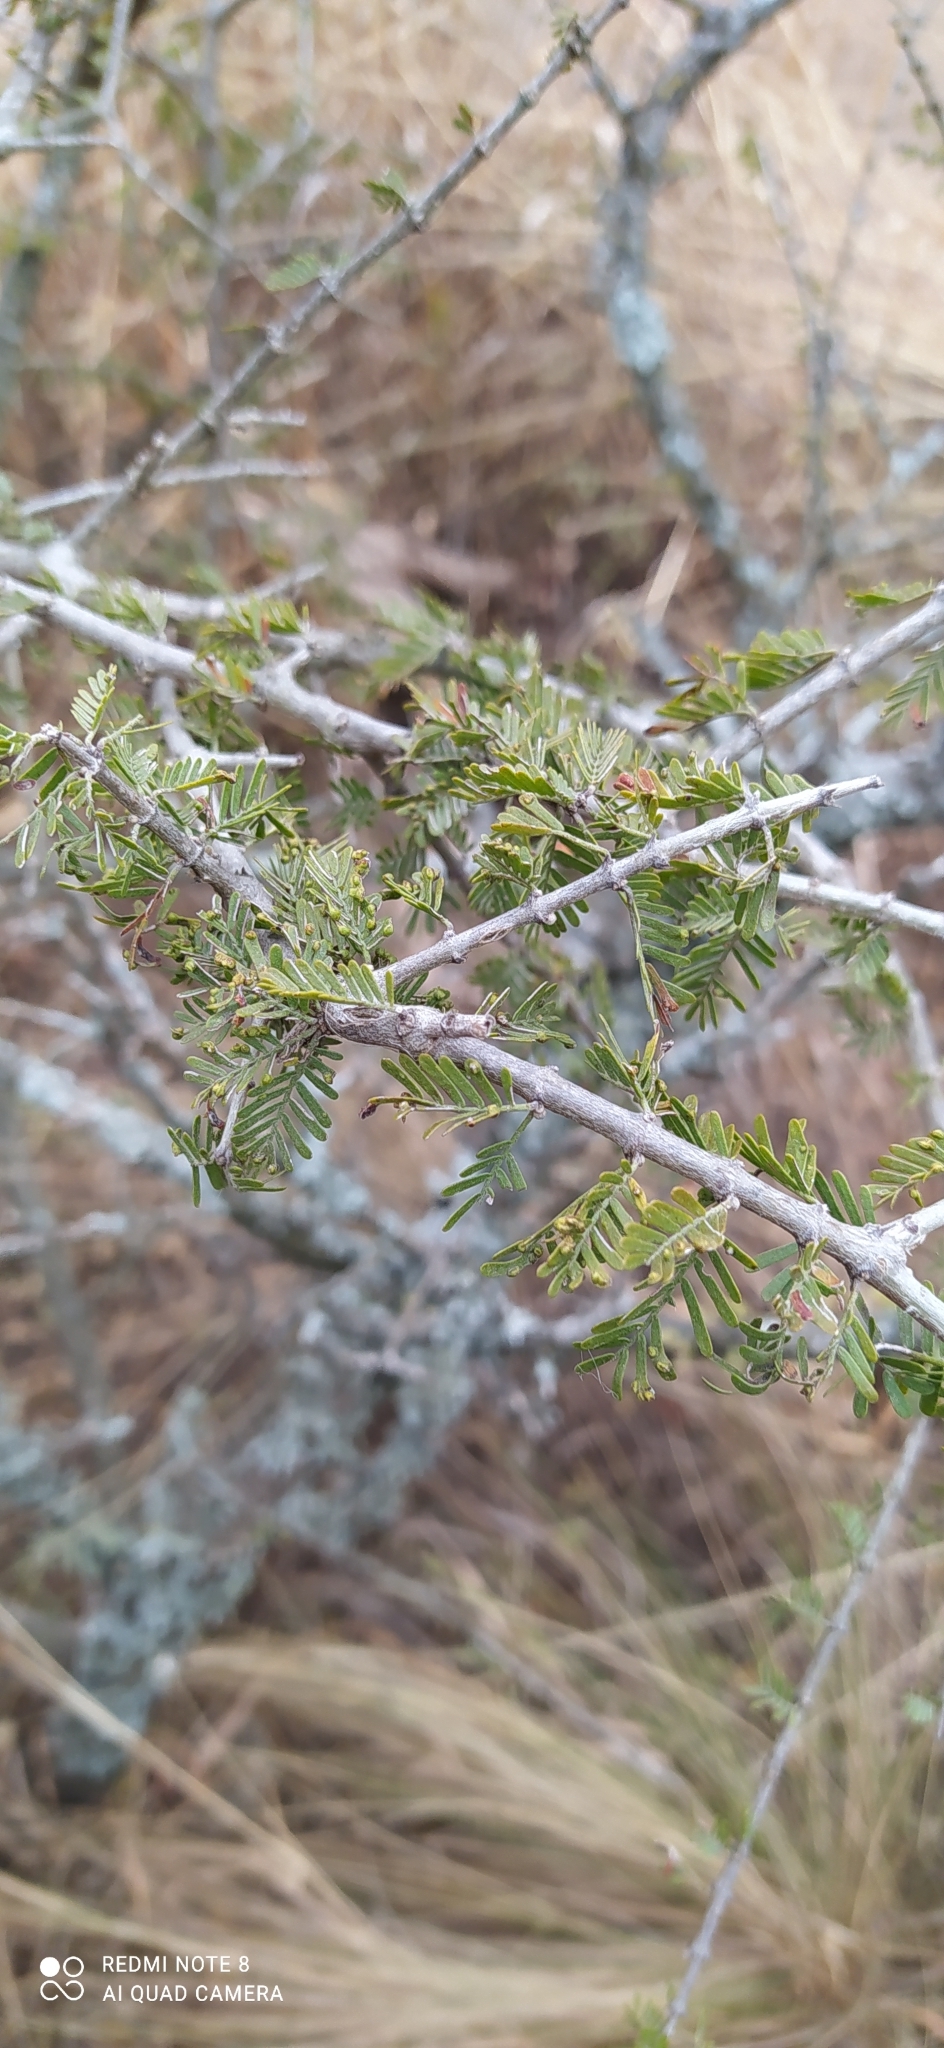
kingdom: Plantae
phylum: Tracheophyta
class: Magnoliopsida
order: Zygophyllales
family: Zygophyllaceae
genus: Porlieria
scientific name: Porlieria microphylla
